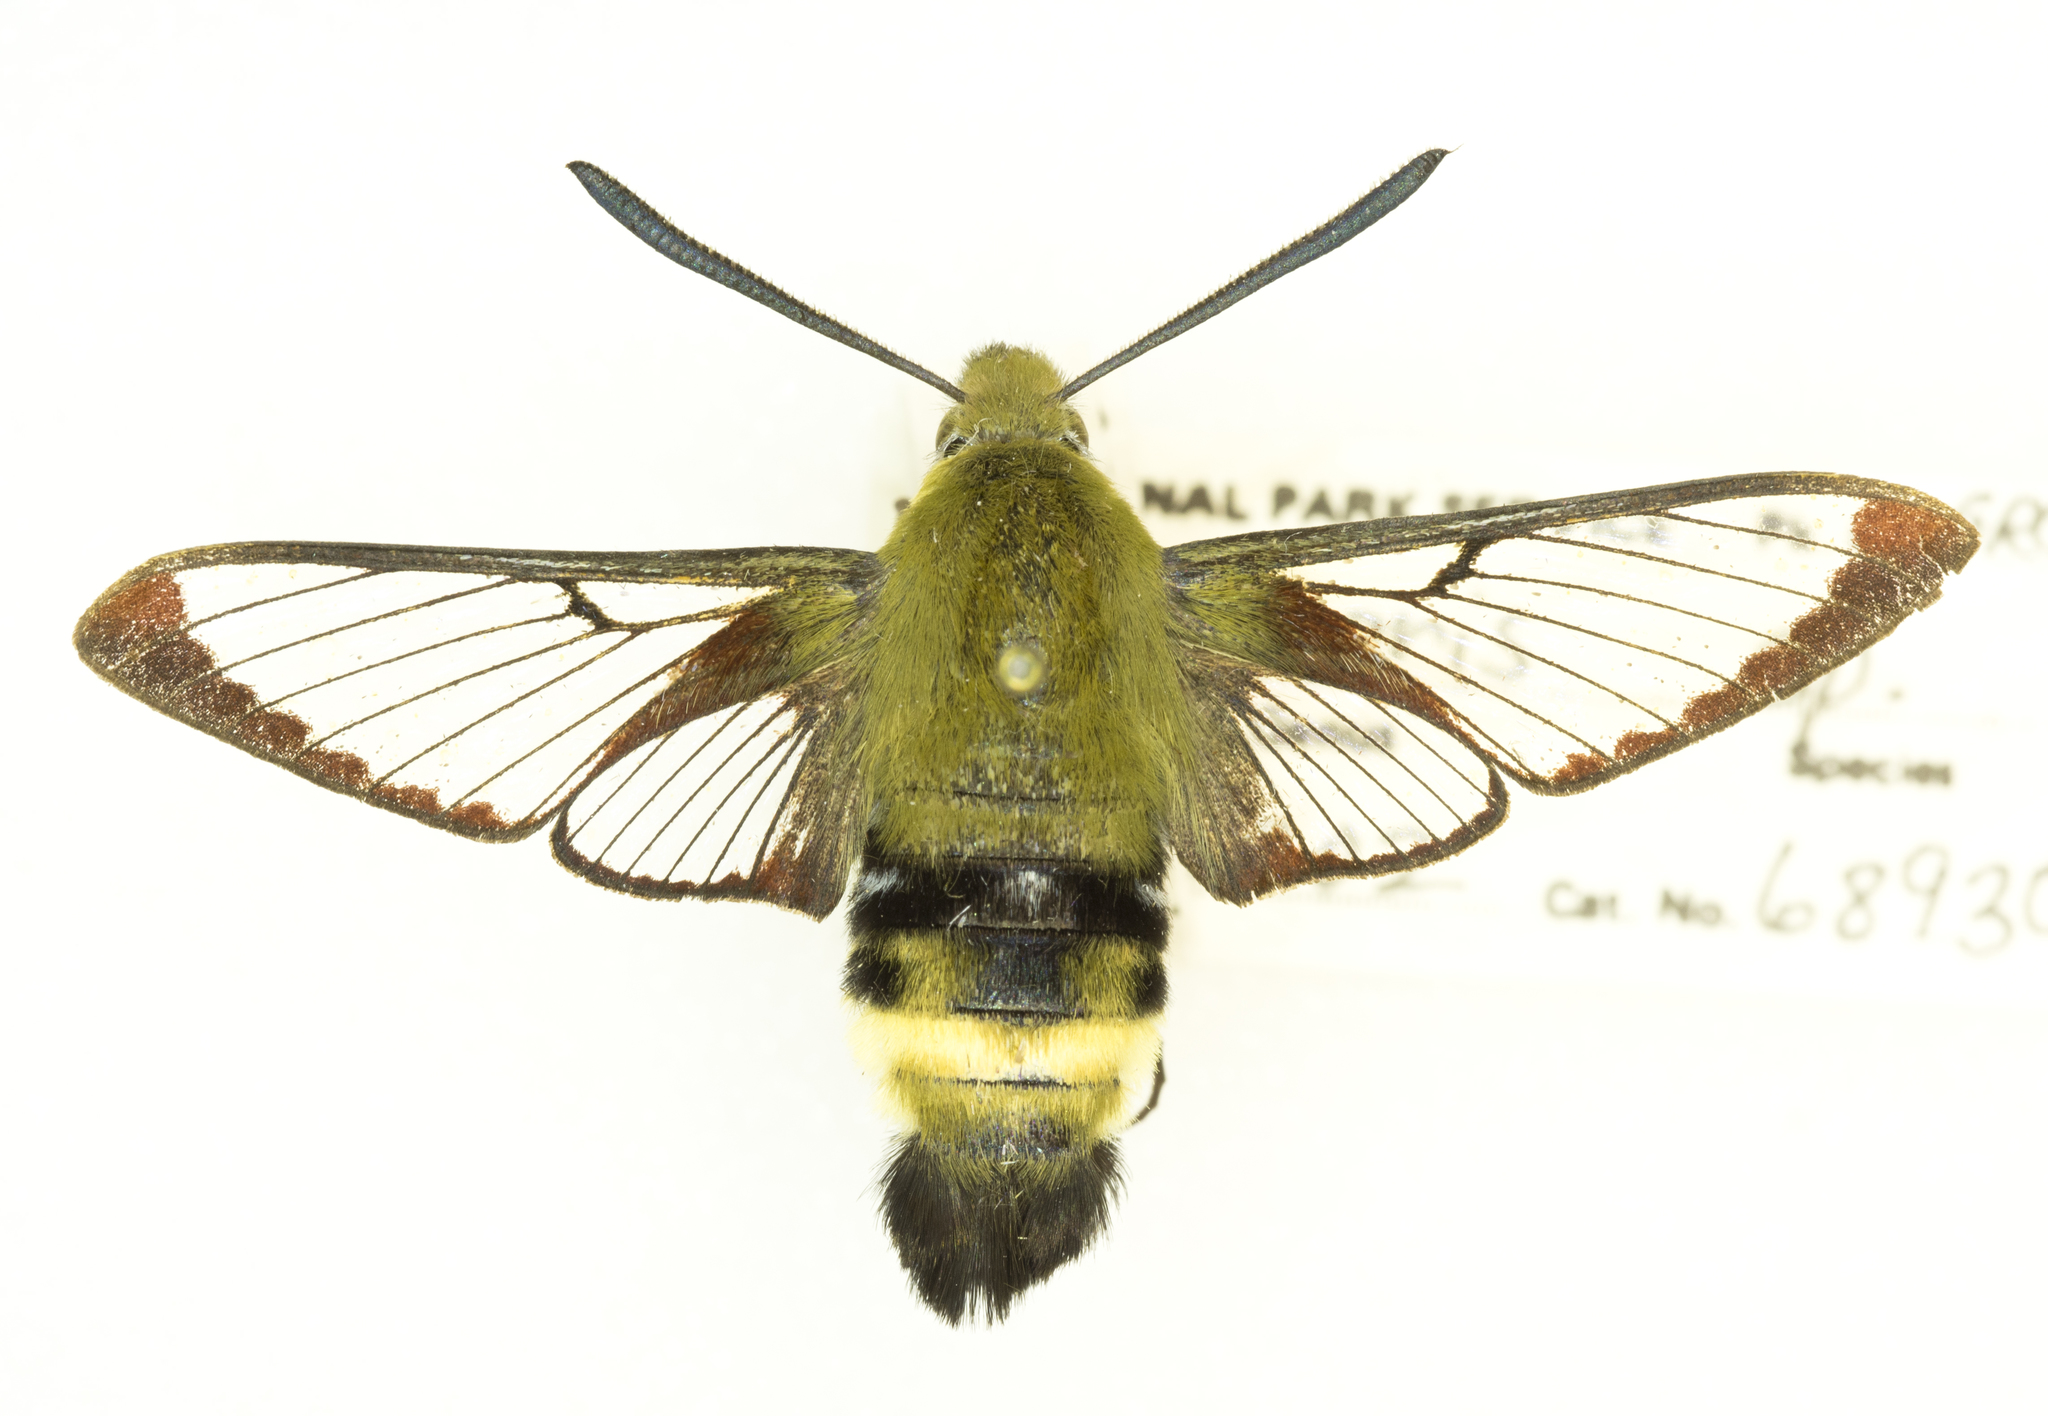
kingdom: Animalia
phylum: Arthropoda
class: Insecta
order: Lepidoptera
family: Sphingidae
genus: Hemaris
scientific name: Hemaris thetis
